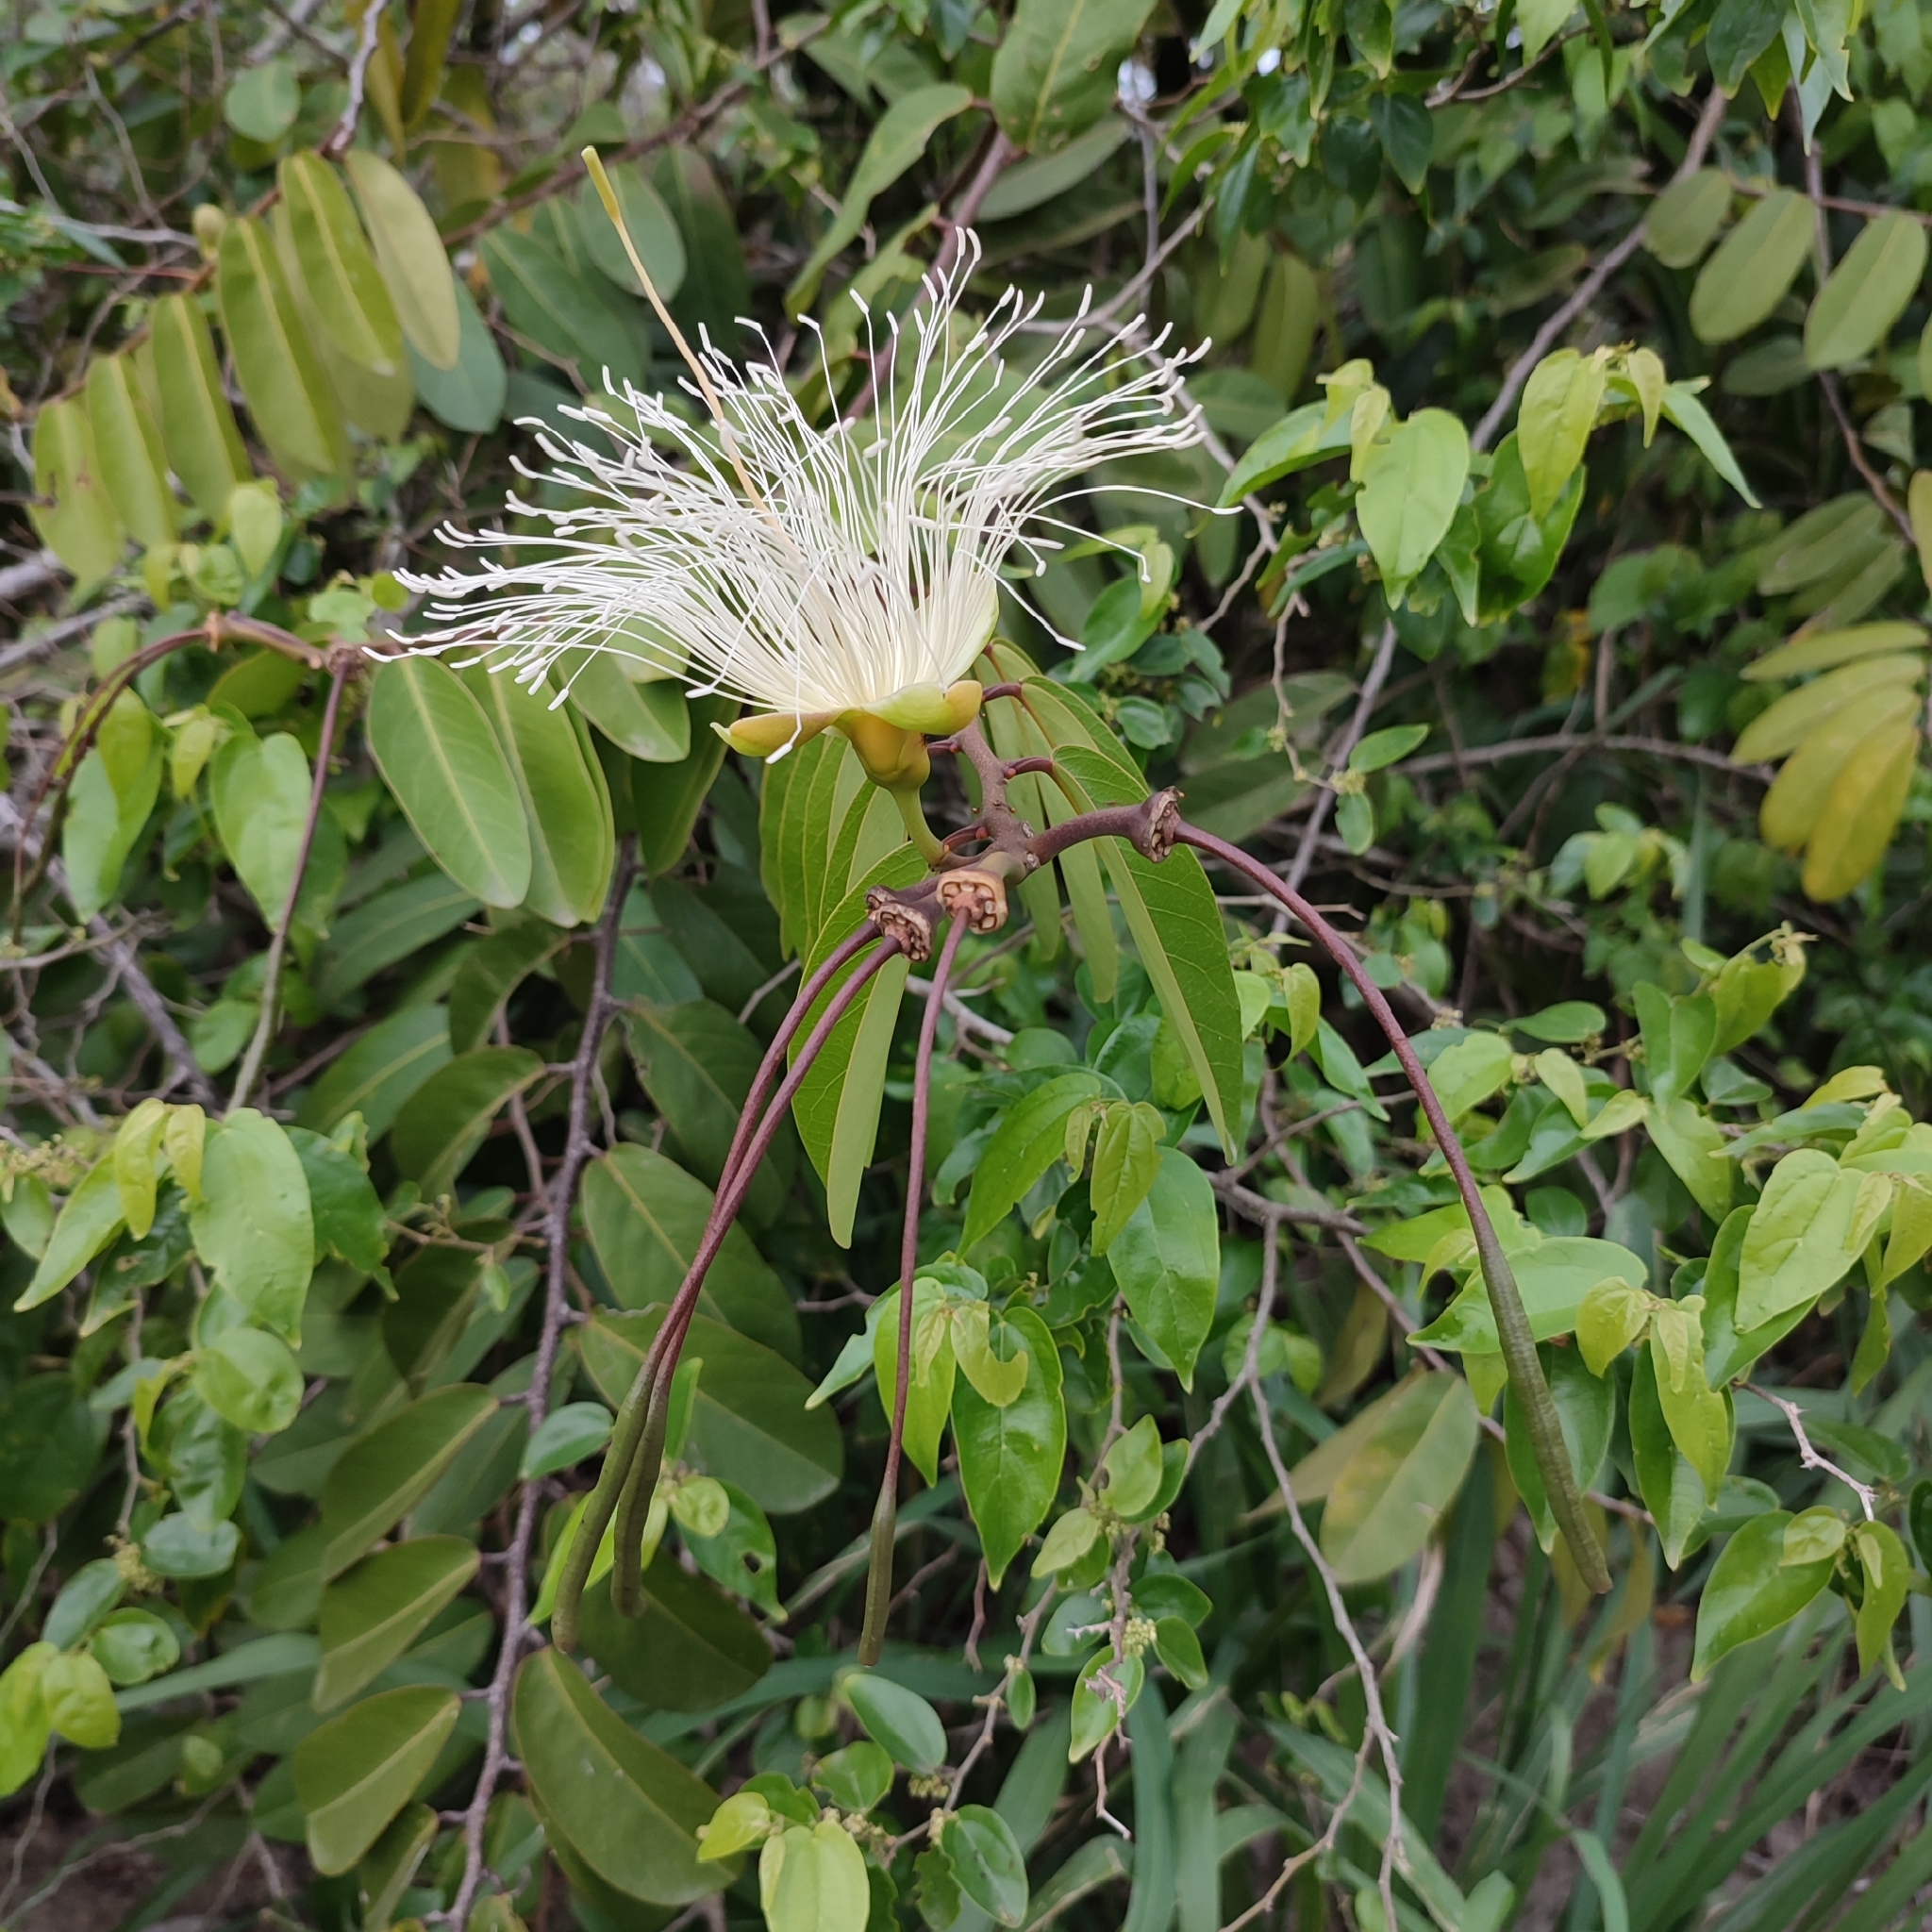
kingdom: Plantae
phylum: Tracheophyta
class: Magnoliopsida
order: Brassicales
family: Capparaceae
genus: Cynophalla
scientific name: Cynophalla flexuosa
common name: Capertree
